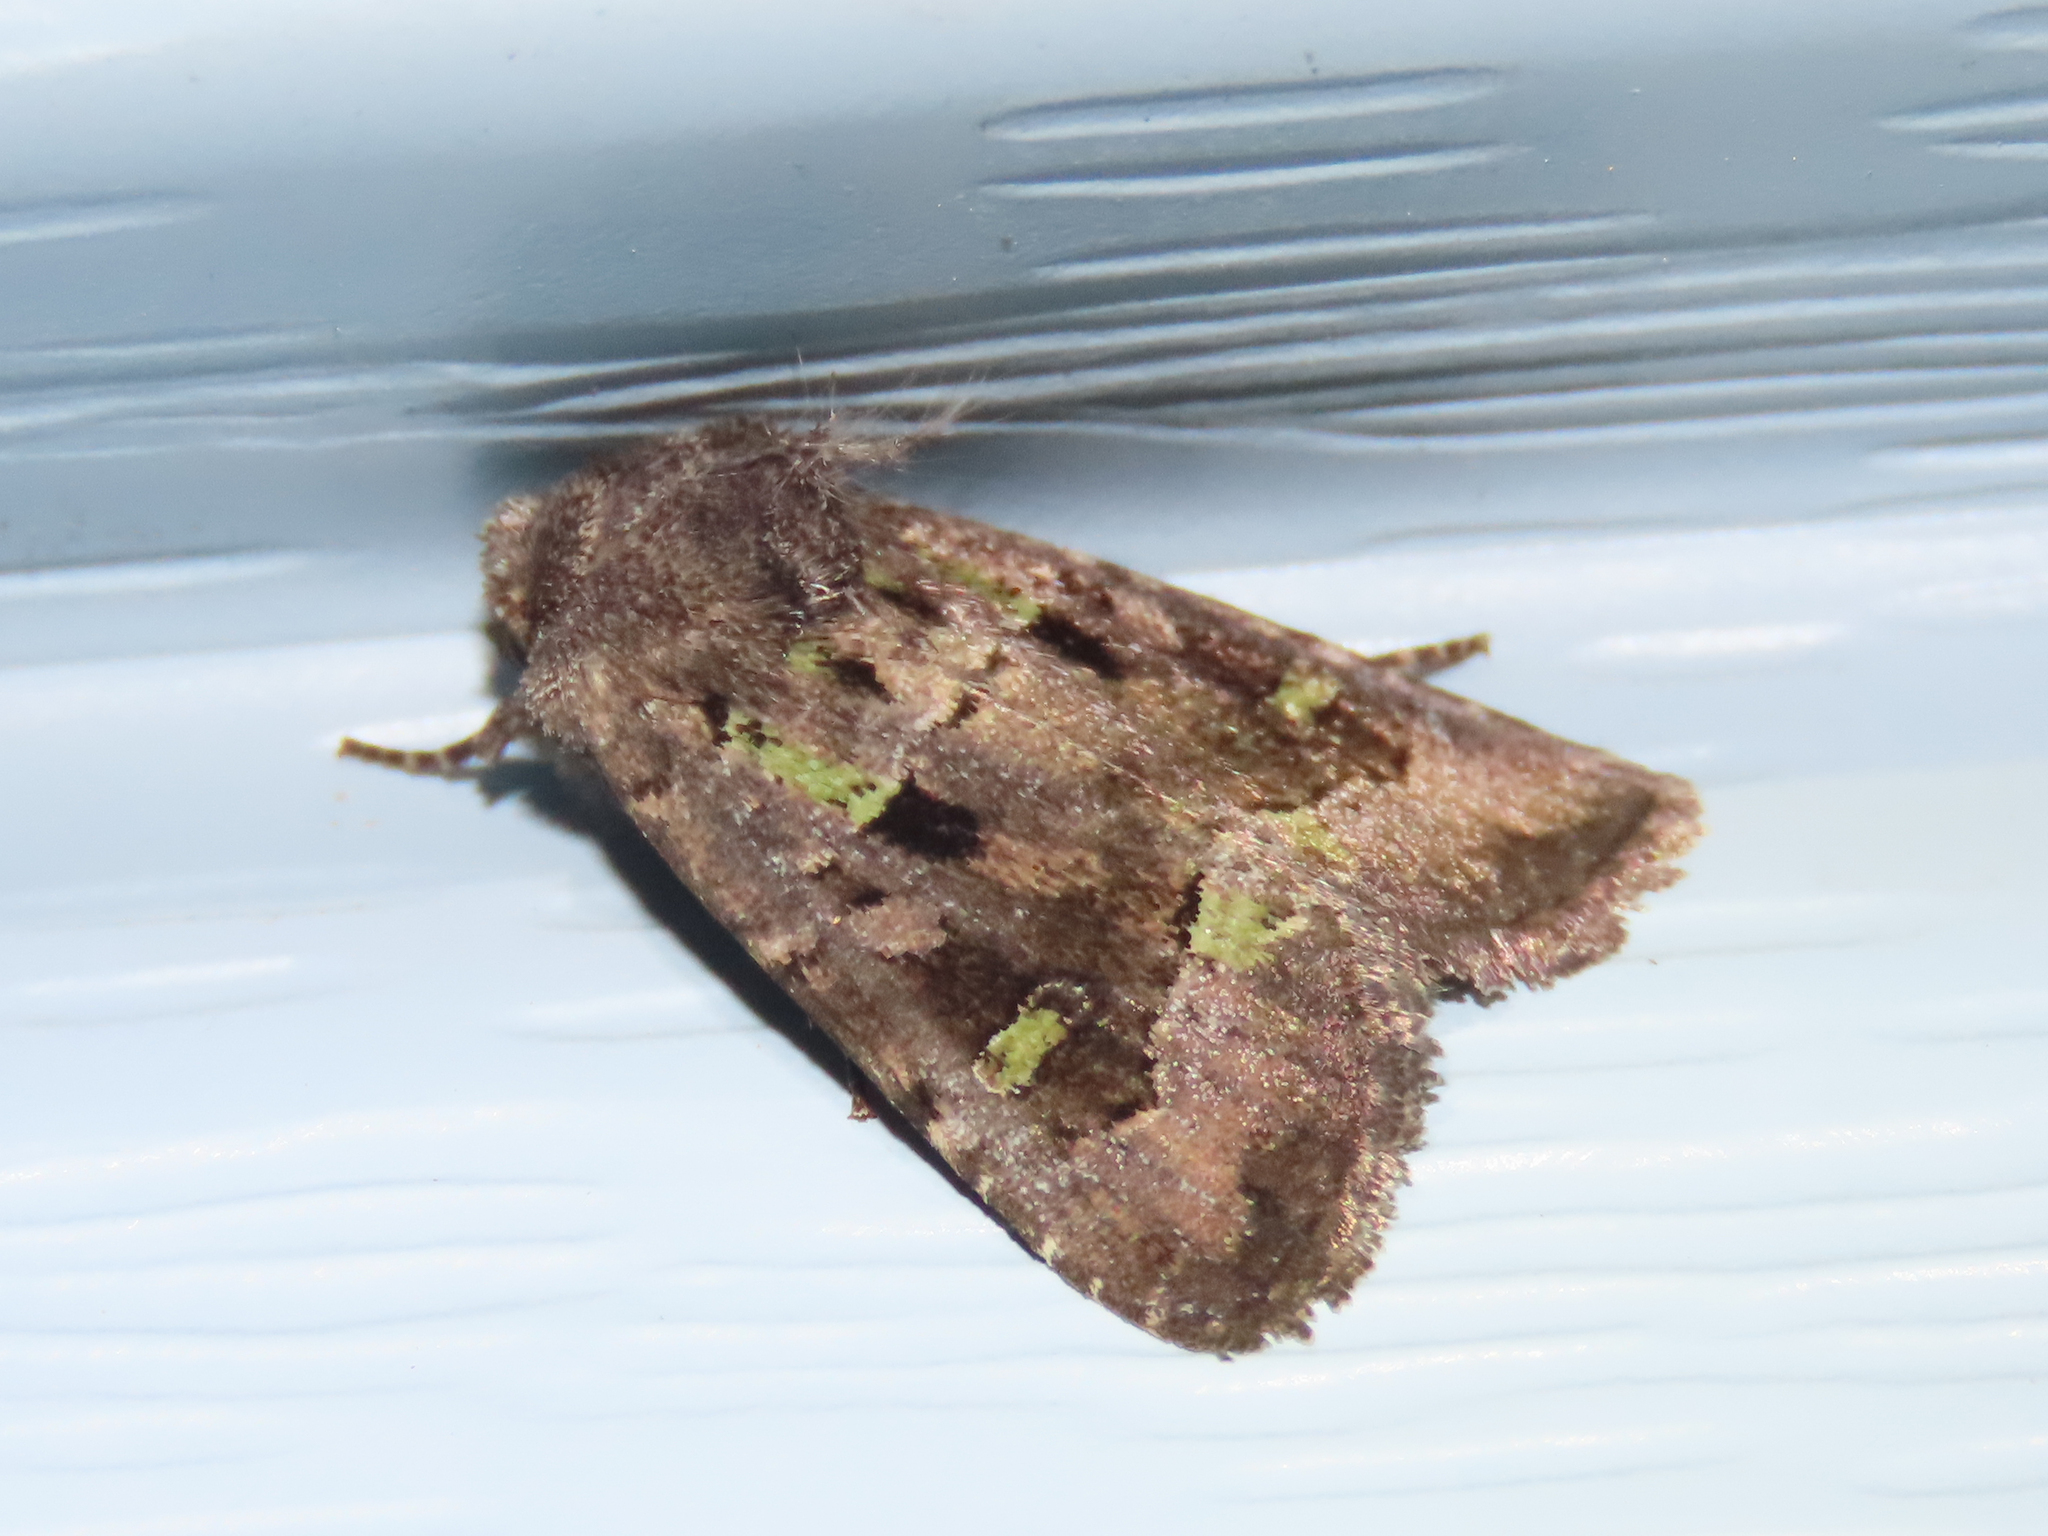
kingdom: Animalia
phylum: Arthropoda
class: Insecta
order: Lepidoptera
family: Noctuidae
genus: Lacinipolia
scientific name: Lacinipolia renigera
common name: Kidney-spotted minor
